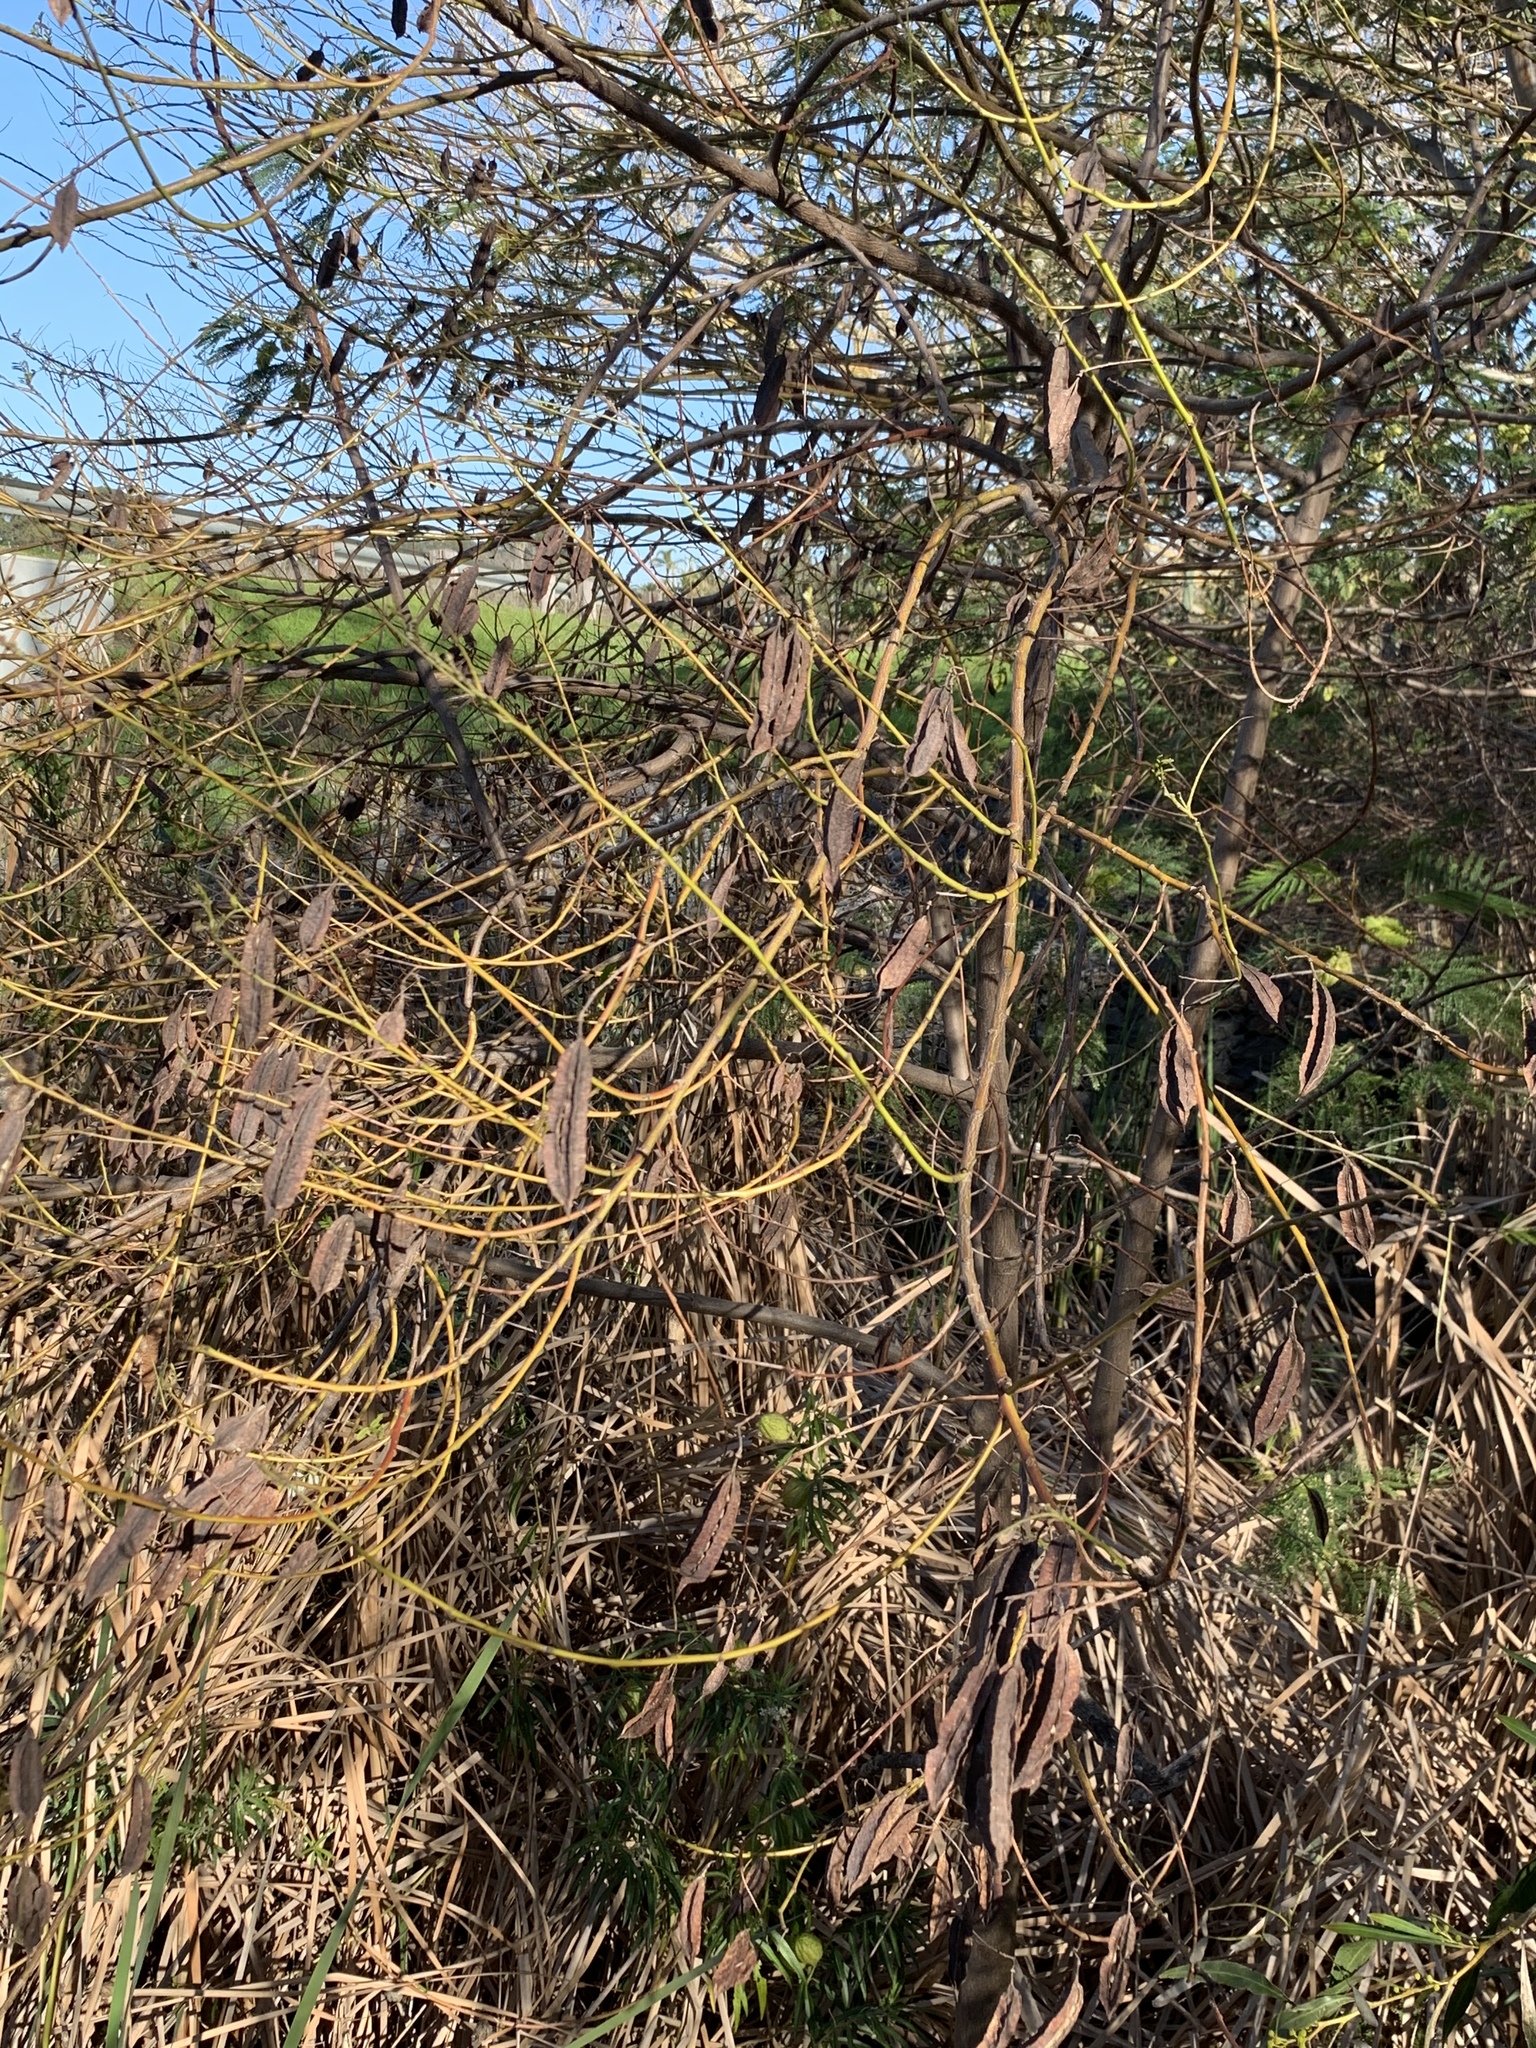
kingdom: Plantae
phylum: Tracheophyta
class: Magnoliopsida
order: Fabales
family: Fabaceae
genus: Sesbania
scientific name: Sesbania punicea
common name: Rattlebox
